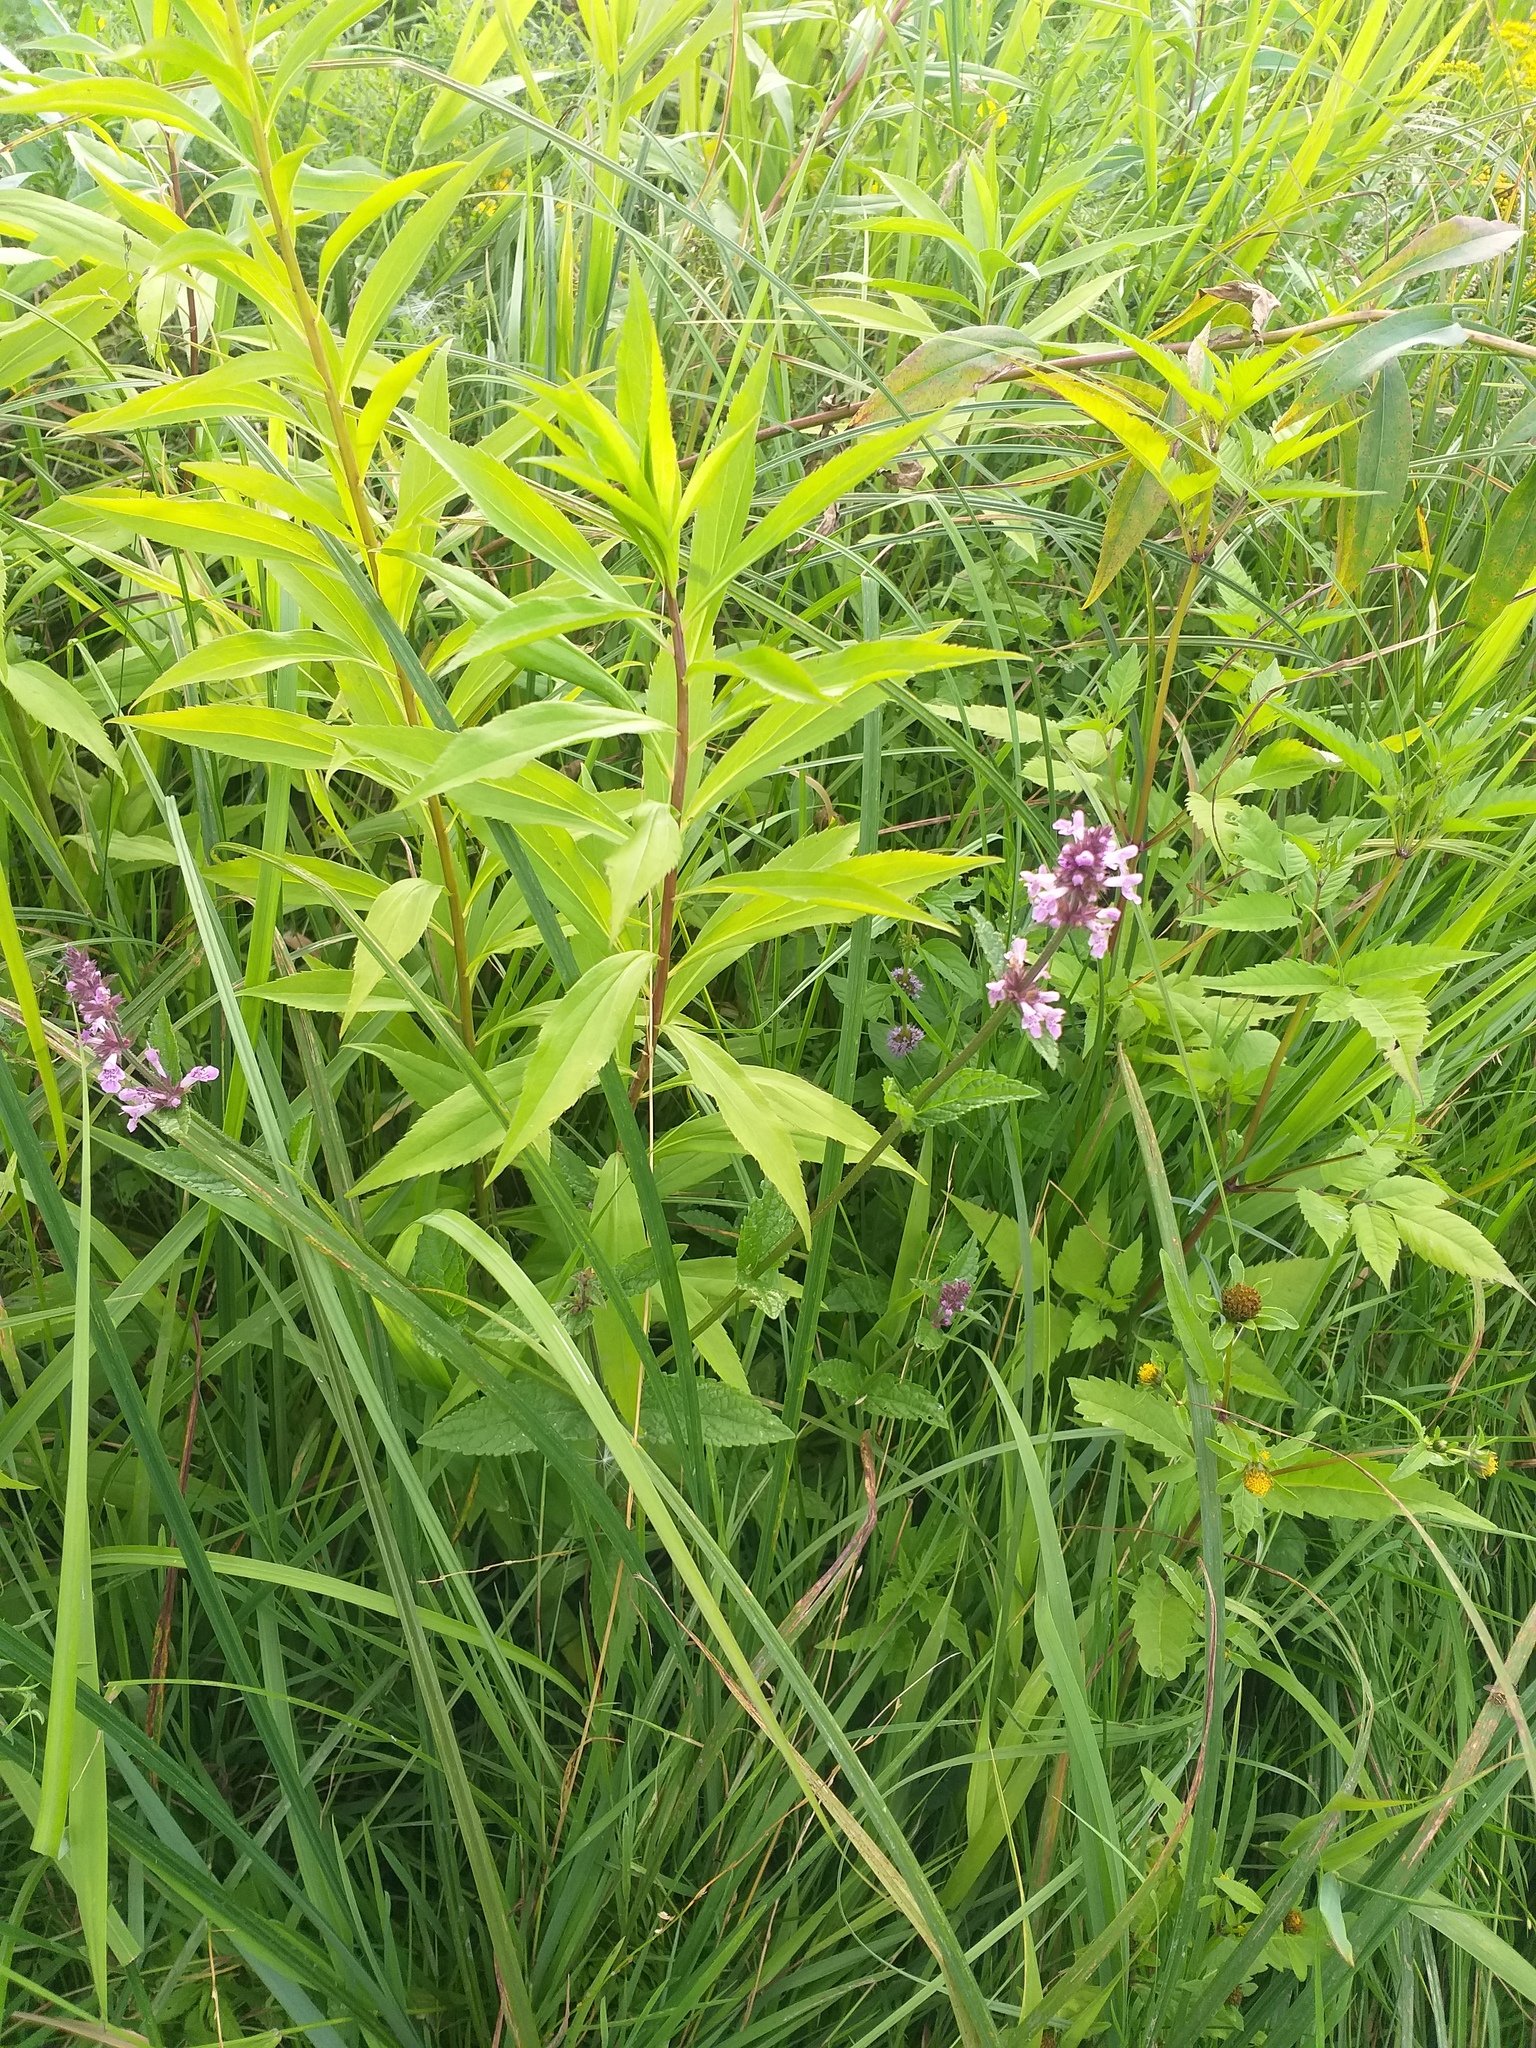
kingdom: Plantae
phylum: Tracheophyta
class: Magnoliopsida
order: Lamiales
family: Lamiaceae
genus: Stachys
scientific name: Stachys palustris
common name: Marsh woundwort
